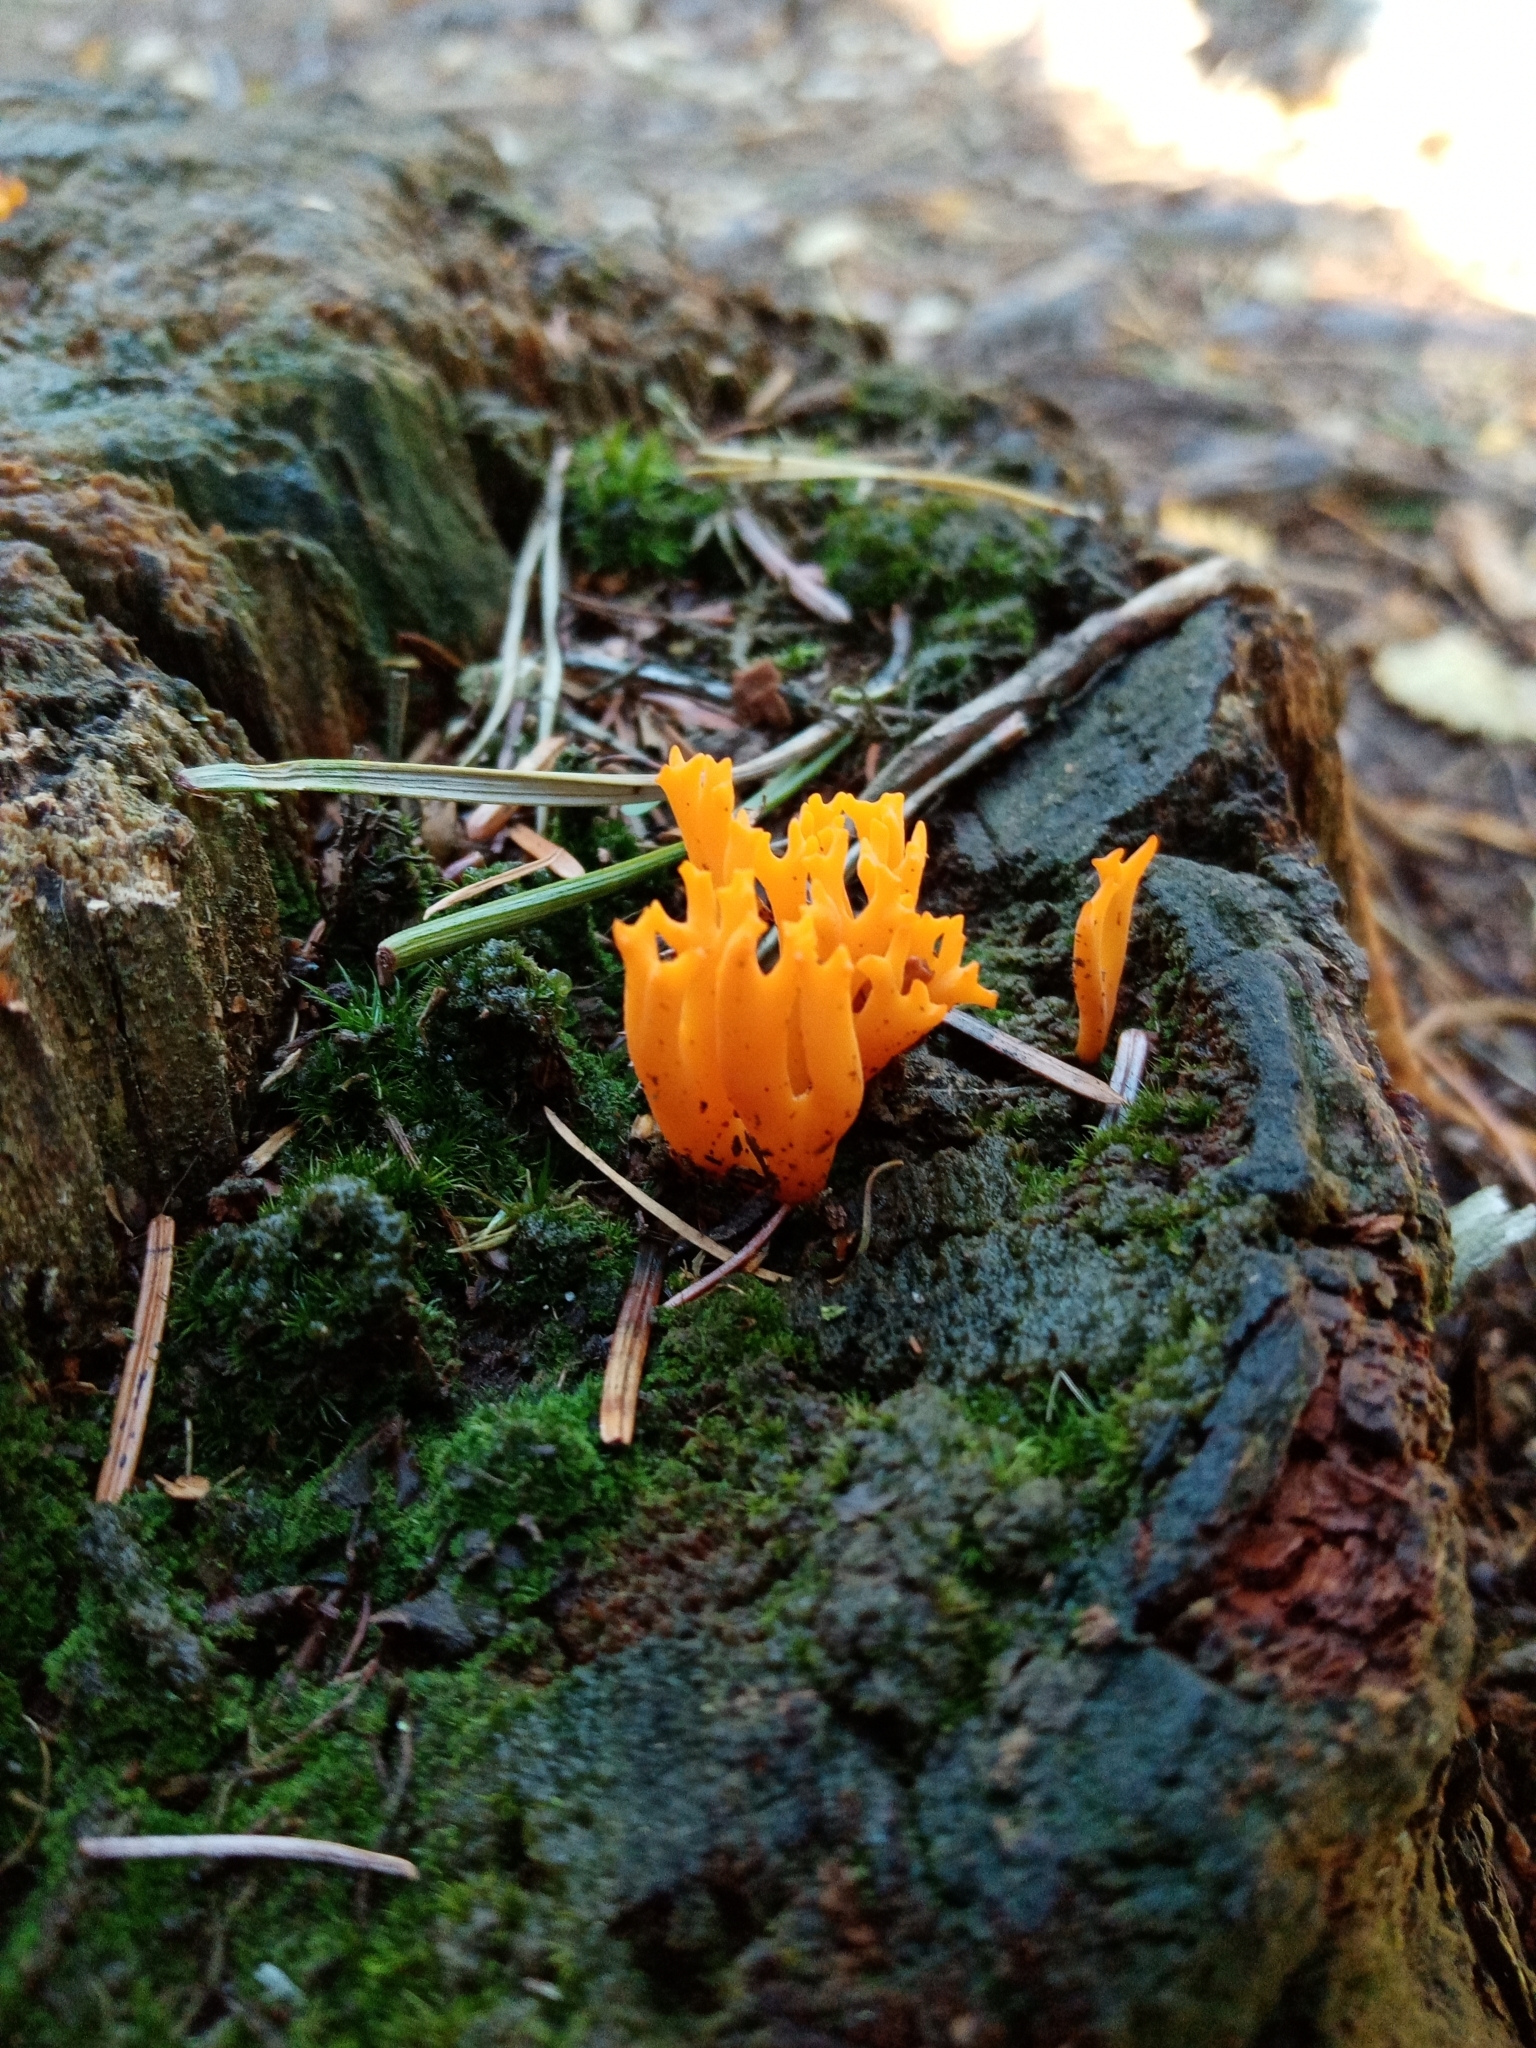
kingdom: Fungi
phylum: Basidiomycota
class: Dacrymycetes
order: Dacrymycetales
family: Dacrymycetaceae
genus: Calocera
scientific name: Calocera viscosa
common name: Yellow stagshorn
